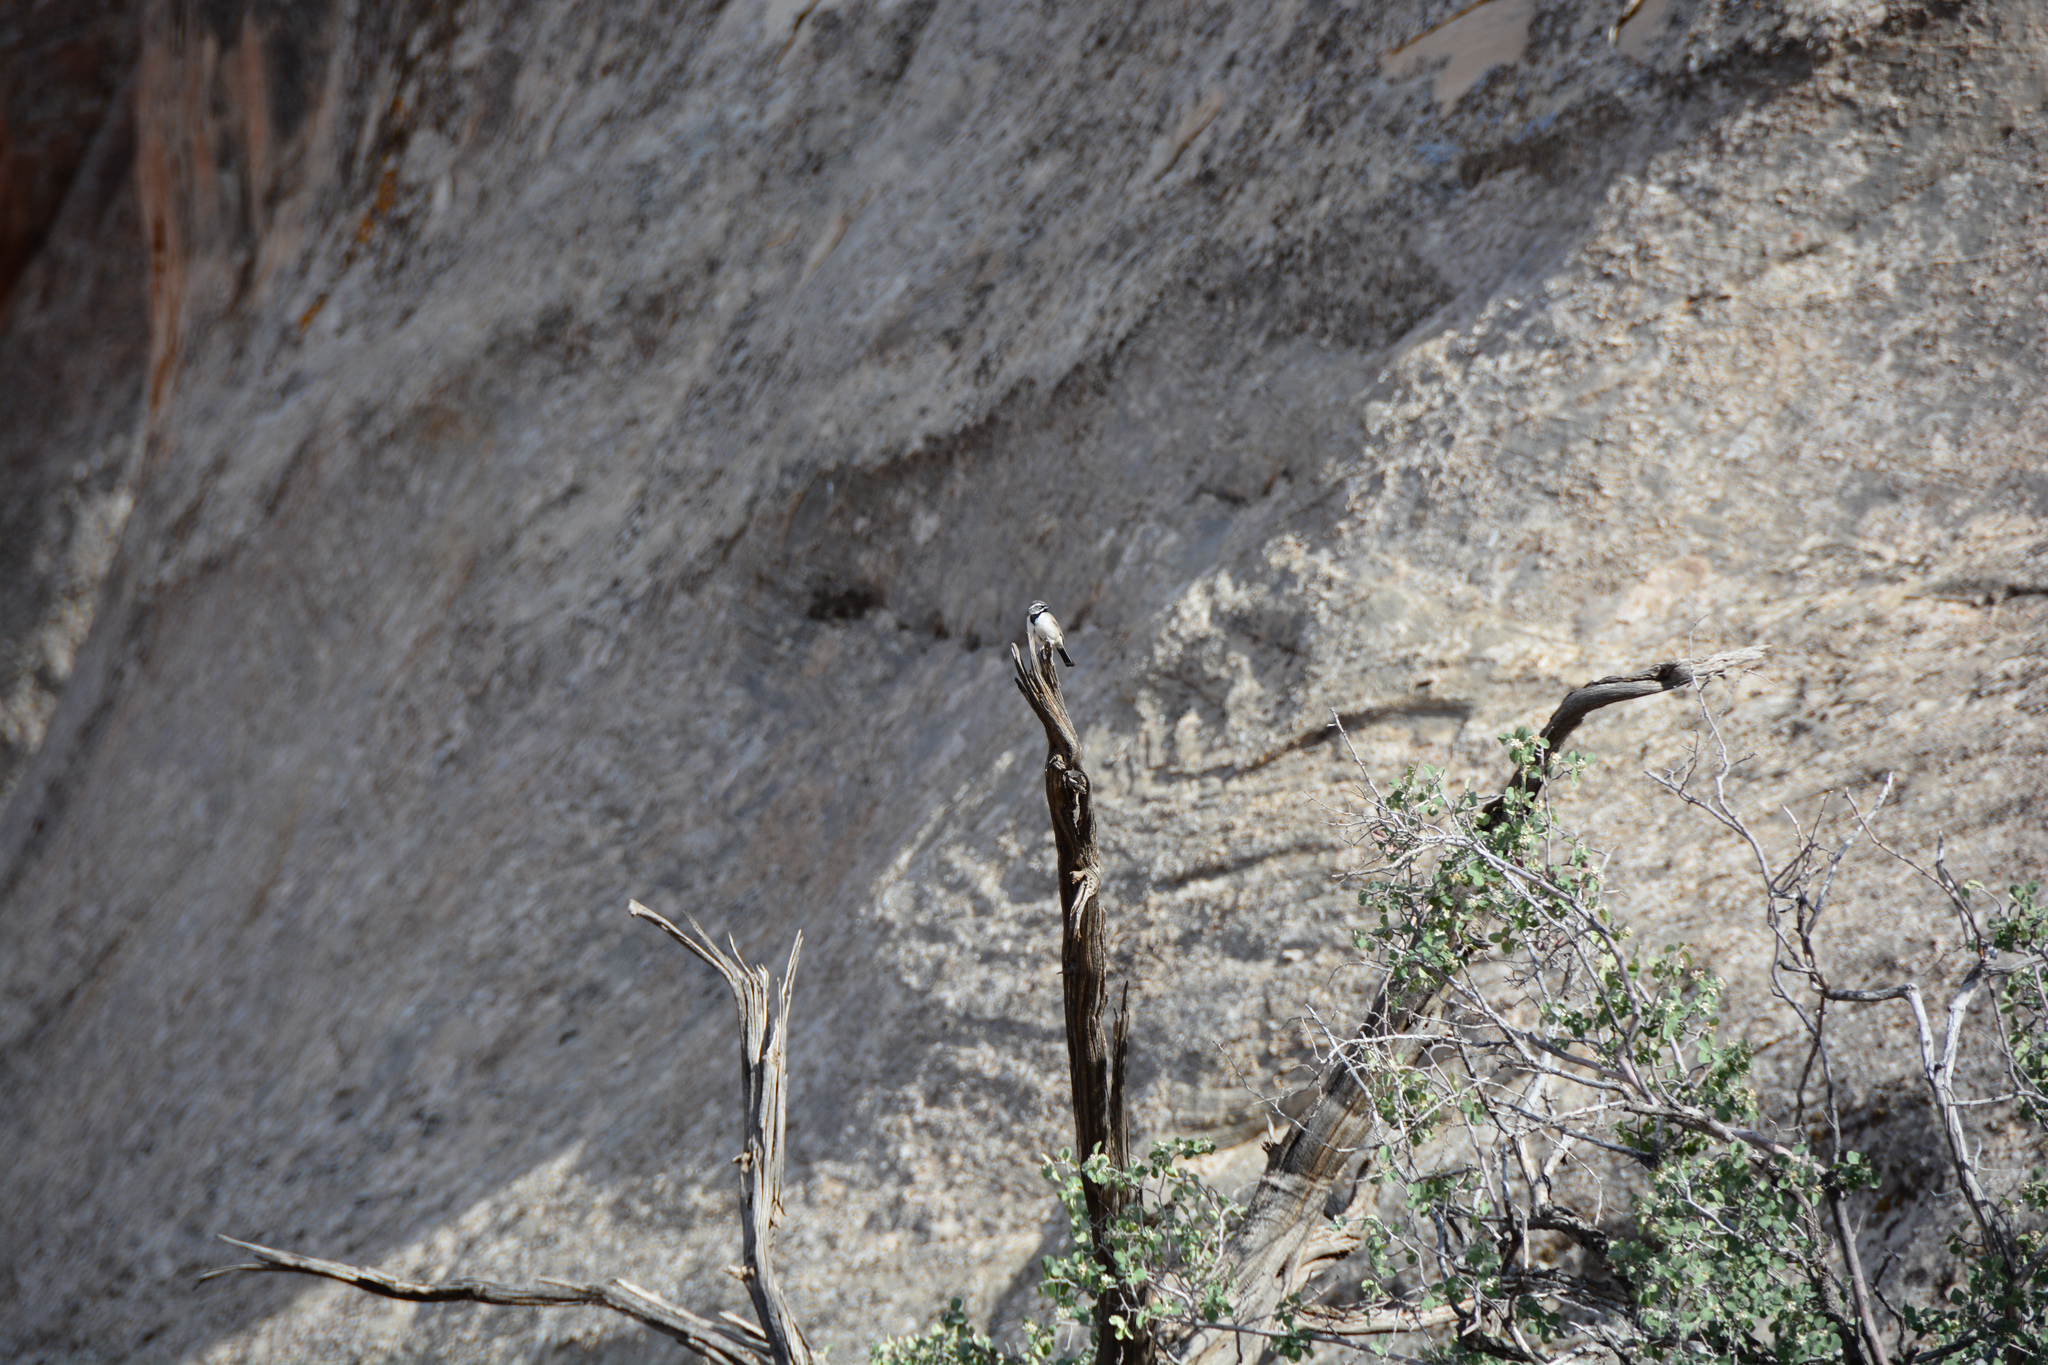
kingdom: Animalia
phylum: Chordata
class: Aves
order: Passeriformes
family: Passerellidae
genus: Amphispiza
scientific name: Amphispiza bilineata
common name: Black-throated sparrow
